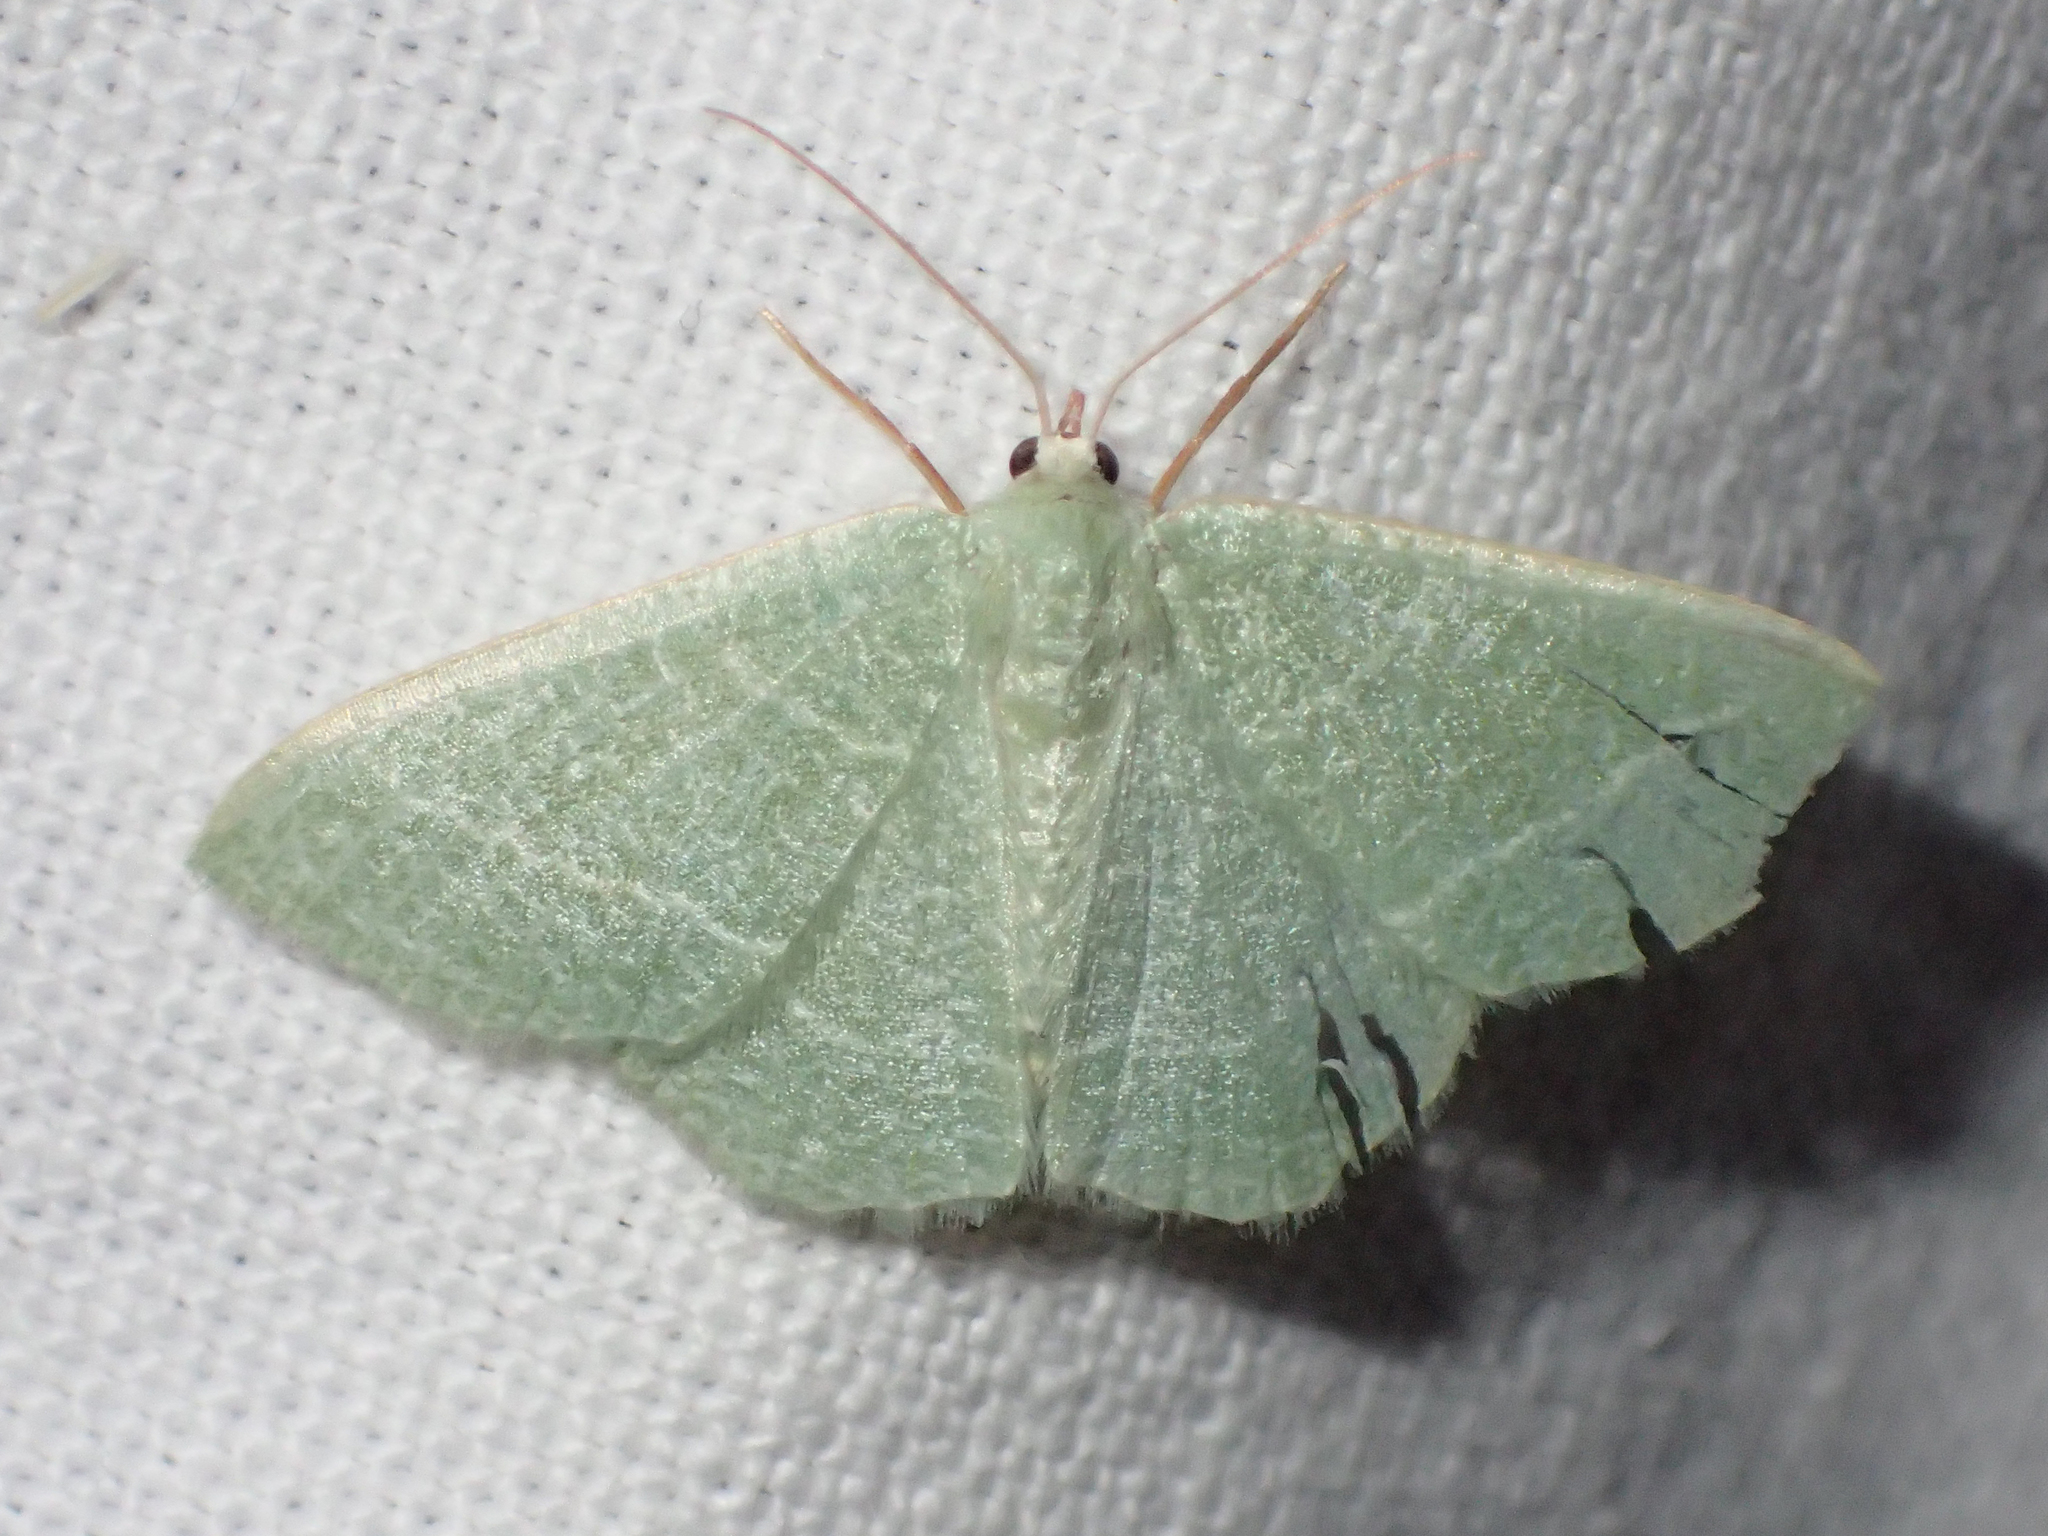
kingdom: Animalia
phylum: Arthropoda
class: Insecta
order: Lepidoptera
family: Geometridae
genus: Chlorissa
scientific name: Chlorissa etruscaria
